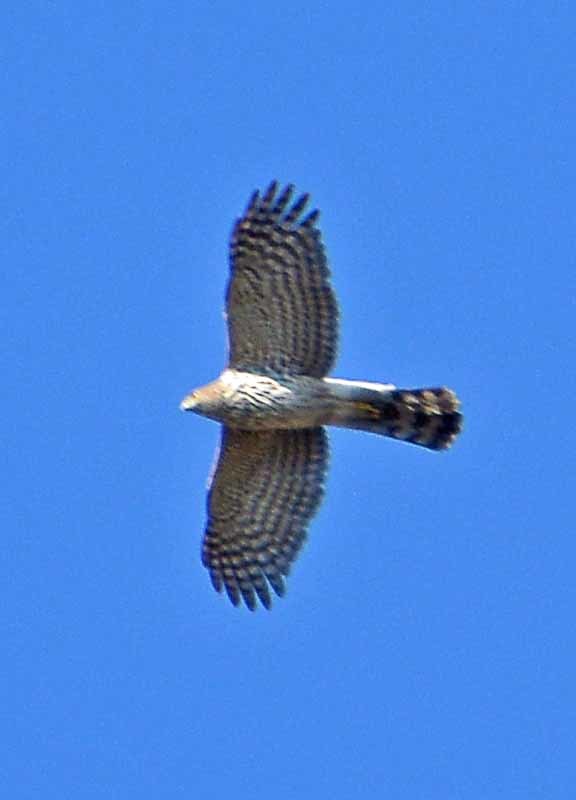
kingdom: Animalia
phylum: Chordata
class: Aves
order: Accipitriformes
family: Accipitridae
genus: Accipiter
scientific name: Accipiter cooperii
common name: Cooper's hawk
